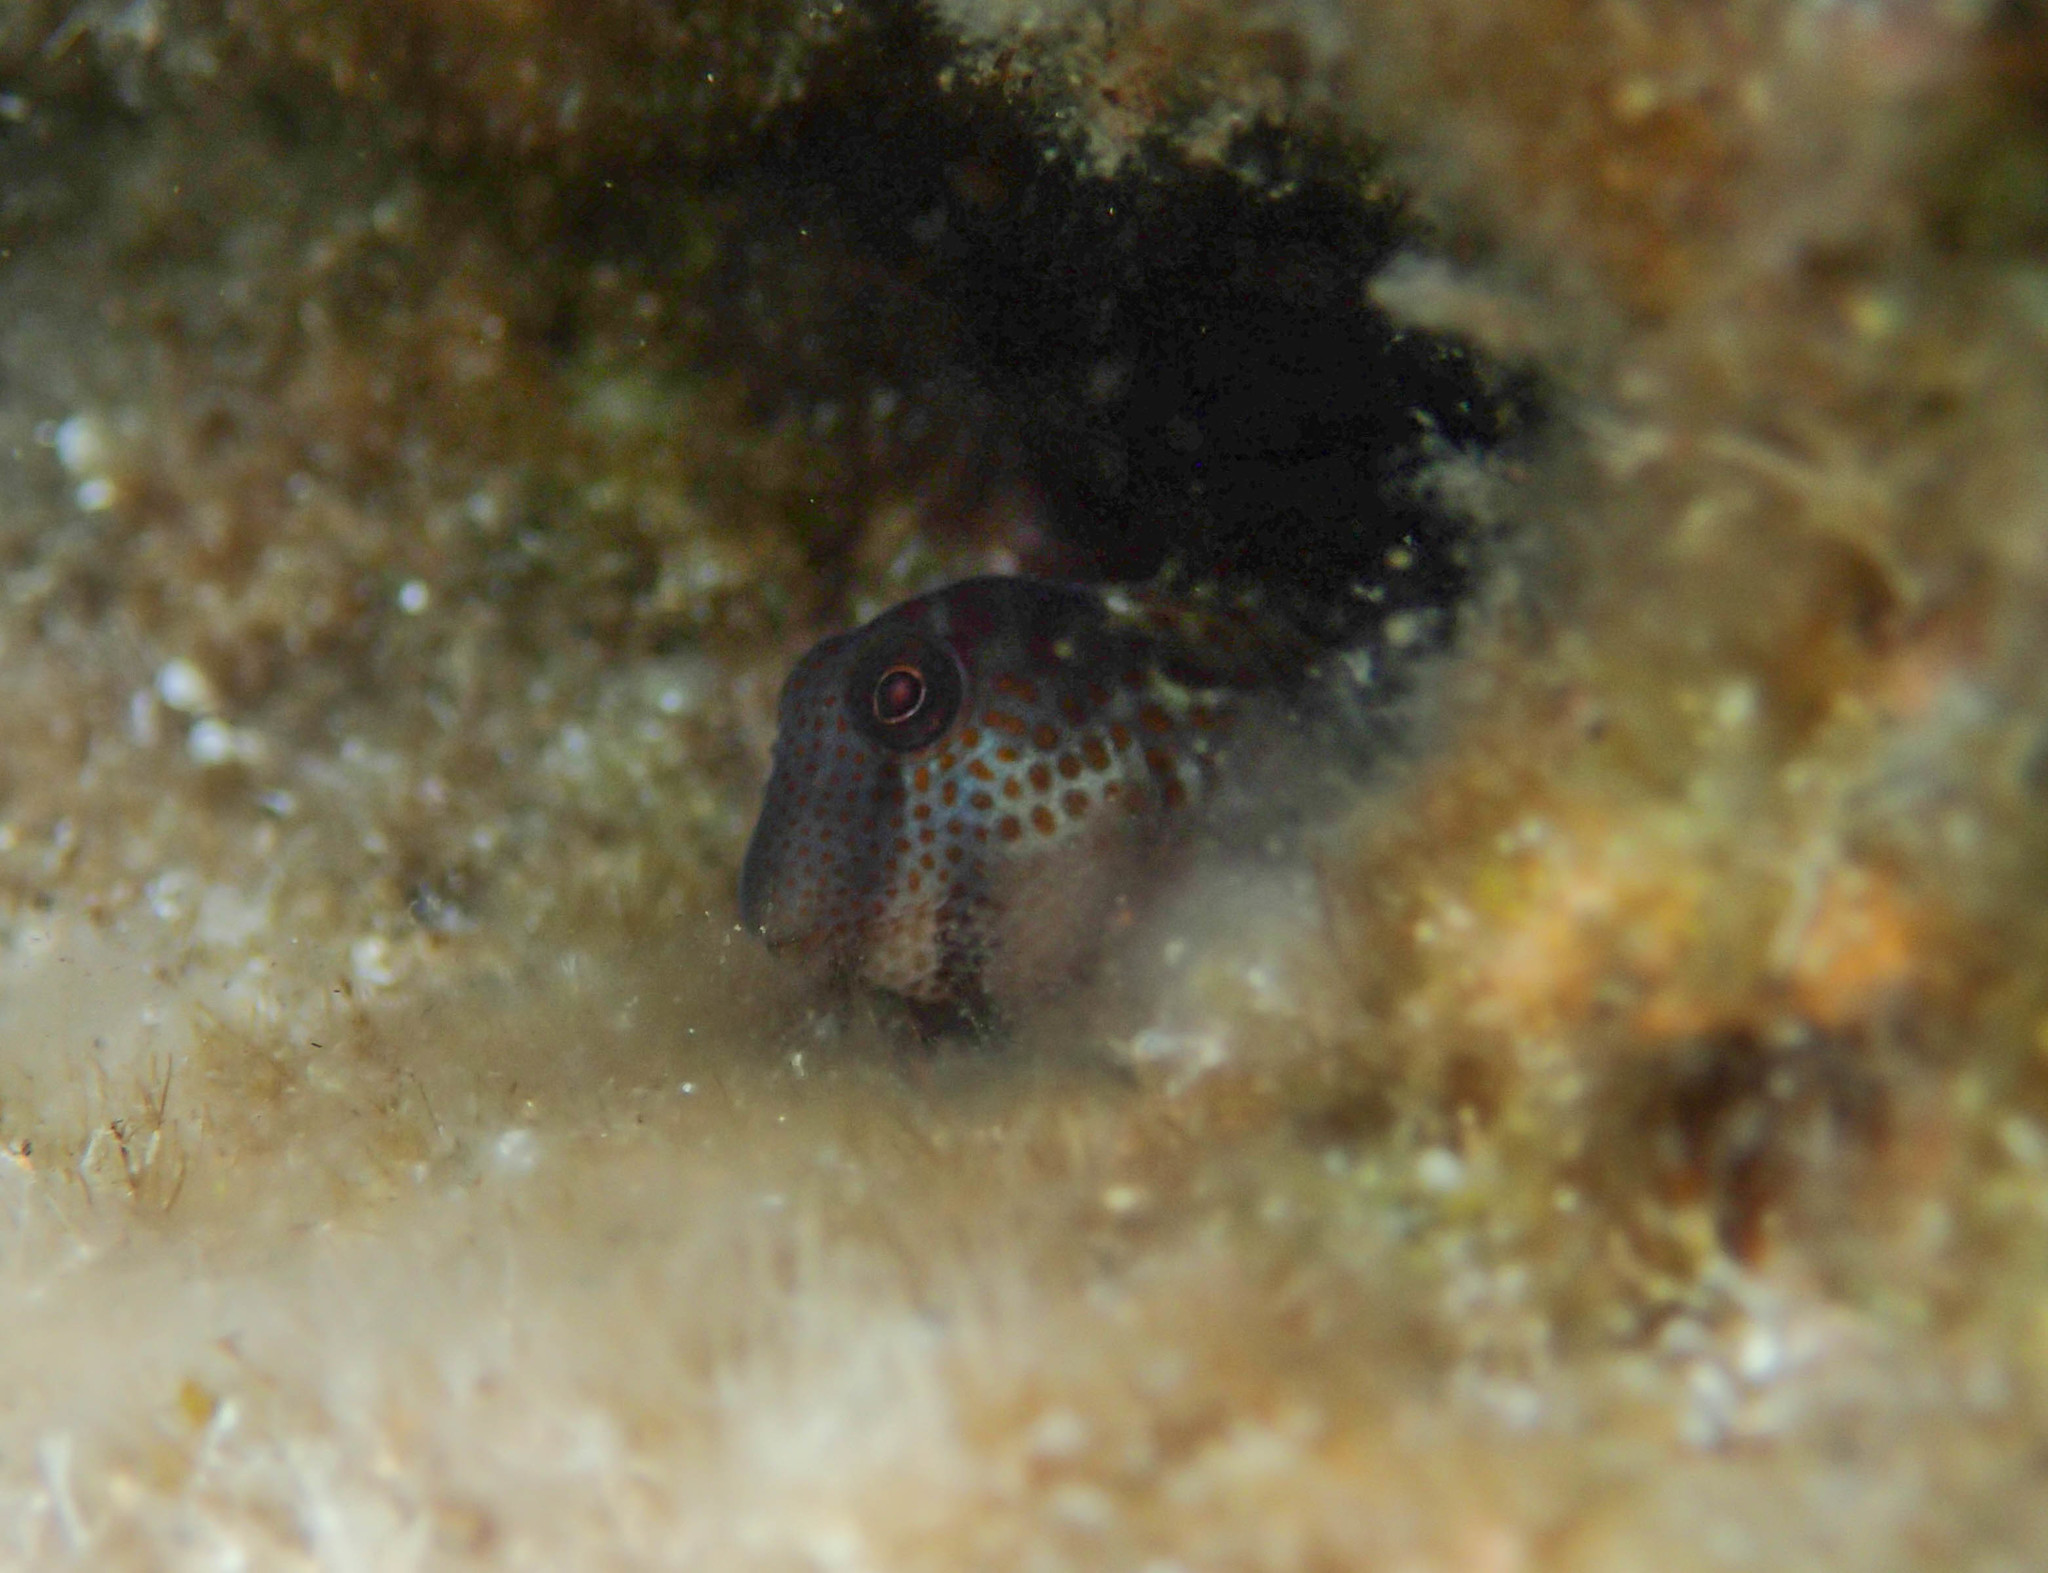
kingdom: Animalia
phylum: Chordata
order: Perciformes
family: Blenniidae
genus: Microlipophrys
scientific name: Microlipophrys canevae
